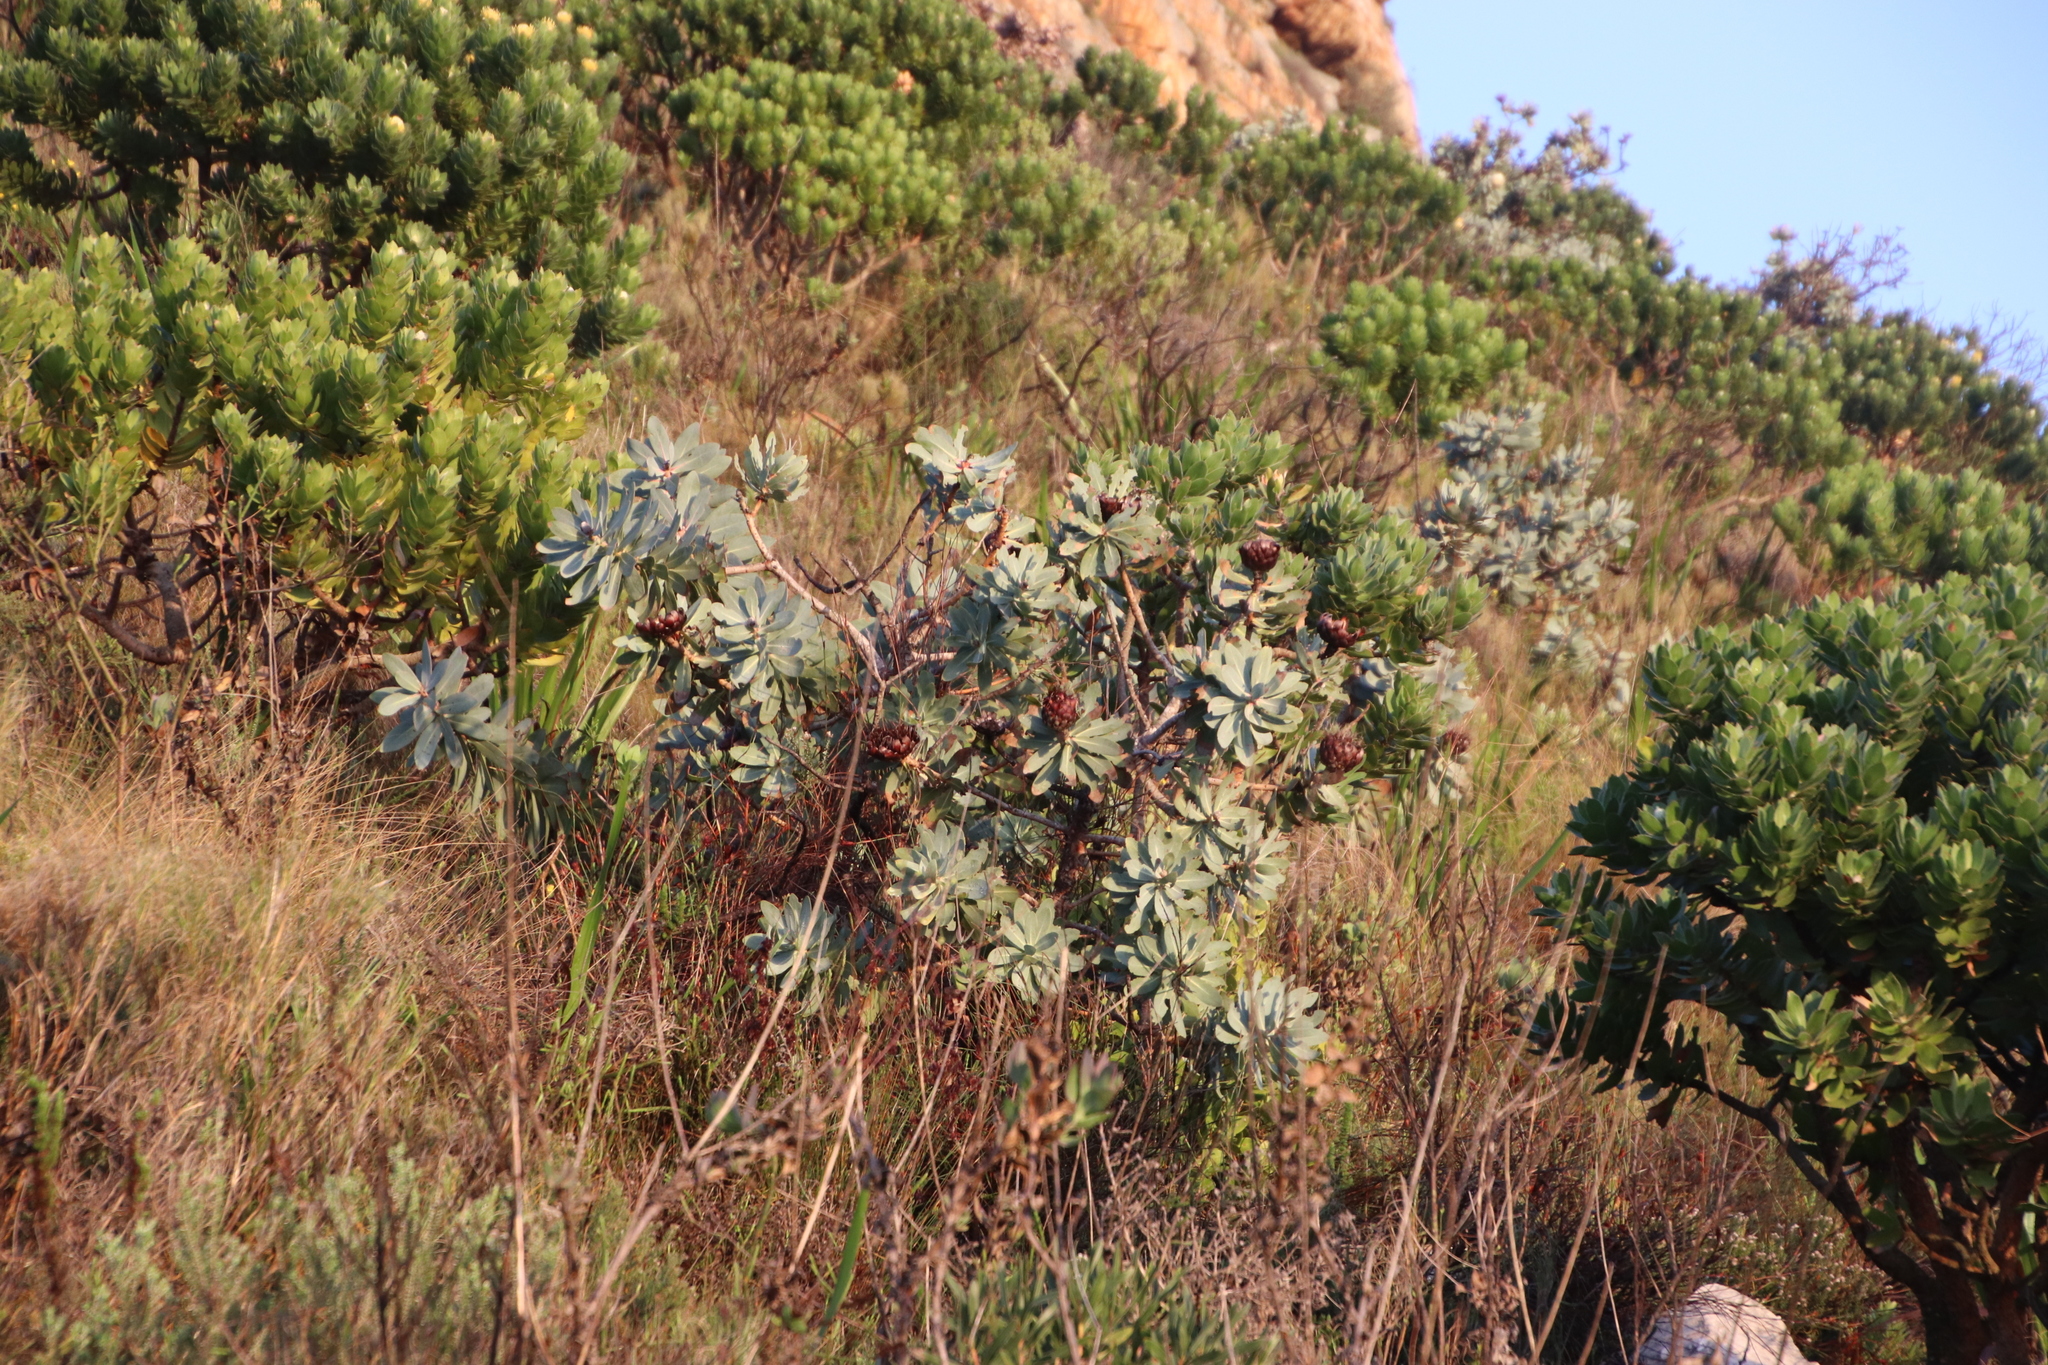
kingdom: Plantae
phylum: Tracheophyta
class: Magnoliopsida
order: Proteales
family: Proteaceae
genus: Protea
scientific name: Protea nitida
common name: Tree protea
